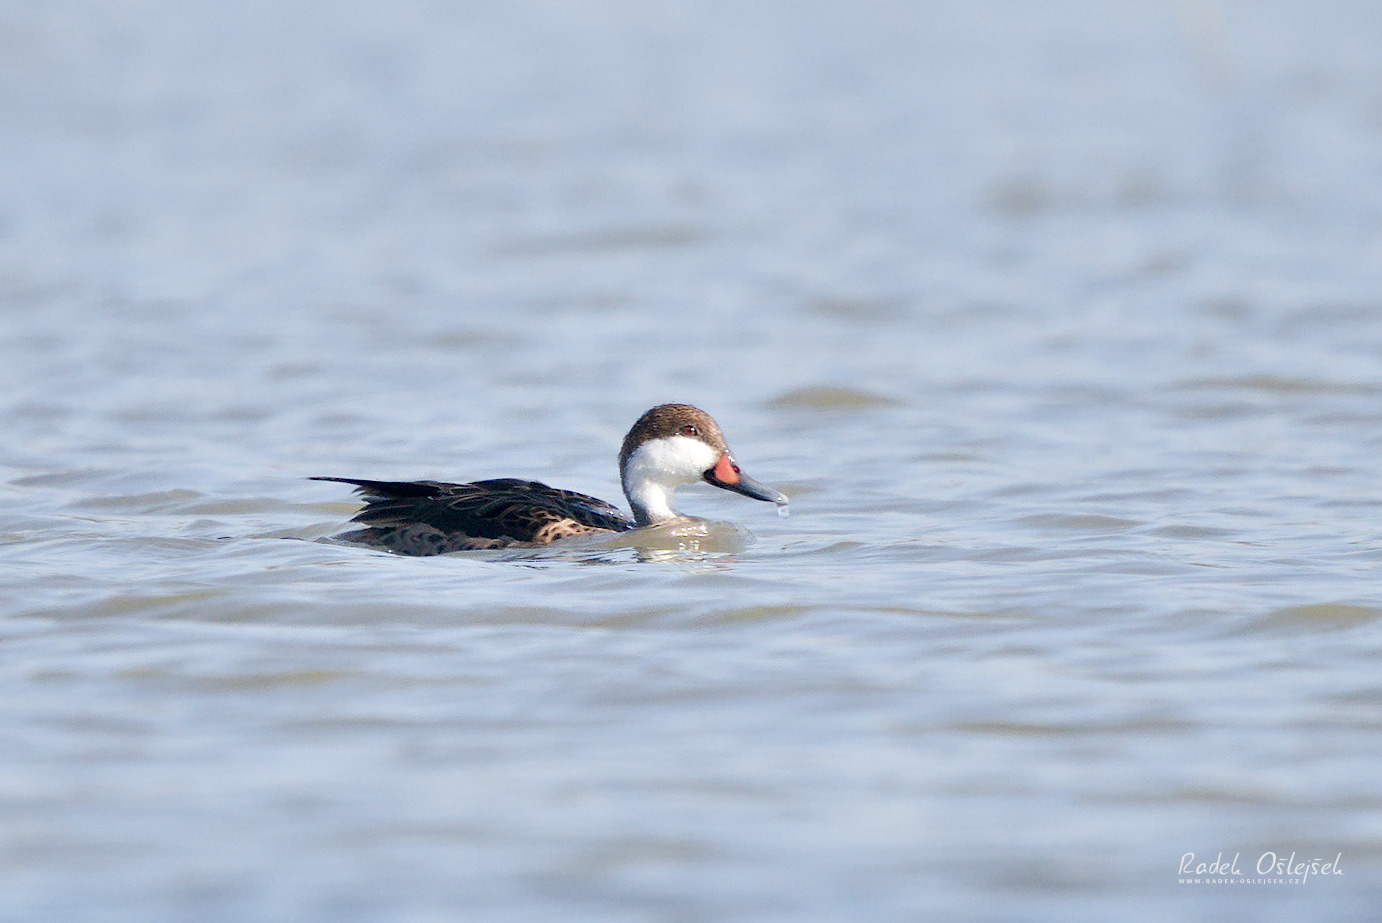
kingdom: Animalia
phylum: Chordata
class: Aves
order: Anseriformes
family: Anatidae
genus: Anas
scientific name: Anas bahamensis
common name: White-cheeked pintail
